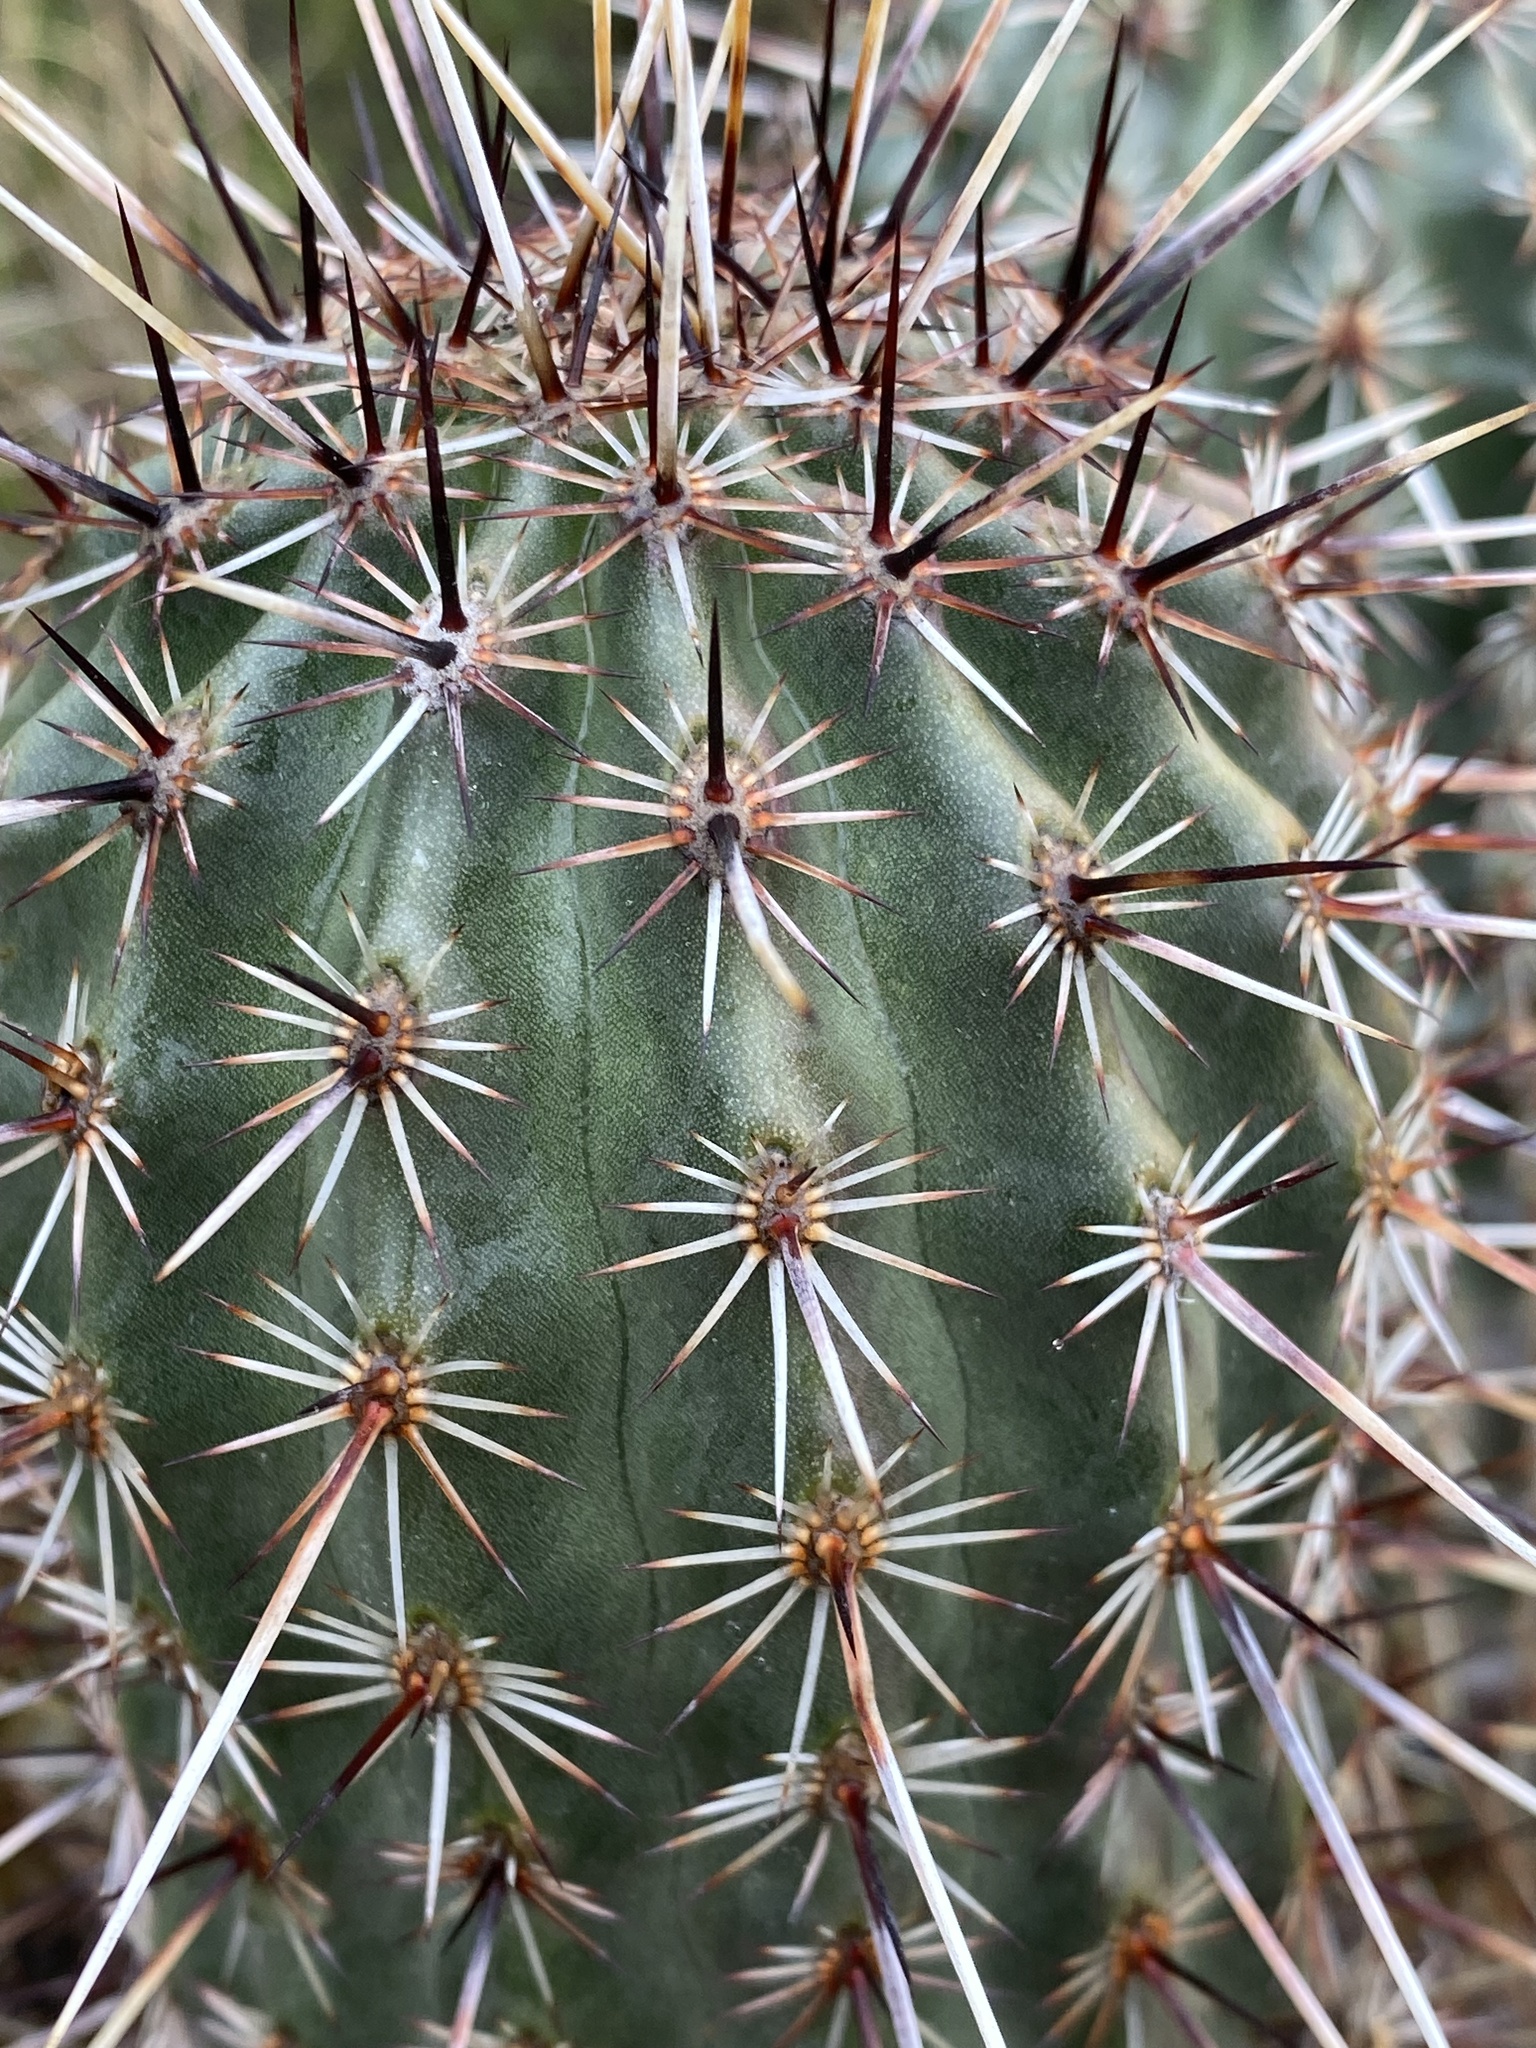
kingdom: Plantae
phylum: Tracheophyta
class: Magnoliopsida
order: Caryophyllales
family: Cactaceae
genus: Echinocereus
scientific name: Echinocereus fasciculatus
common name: Bundle hedgehog
